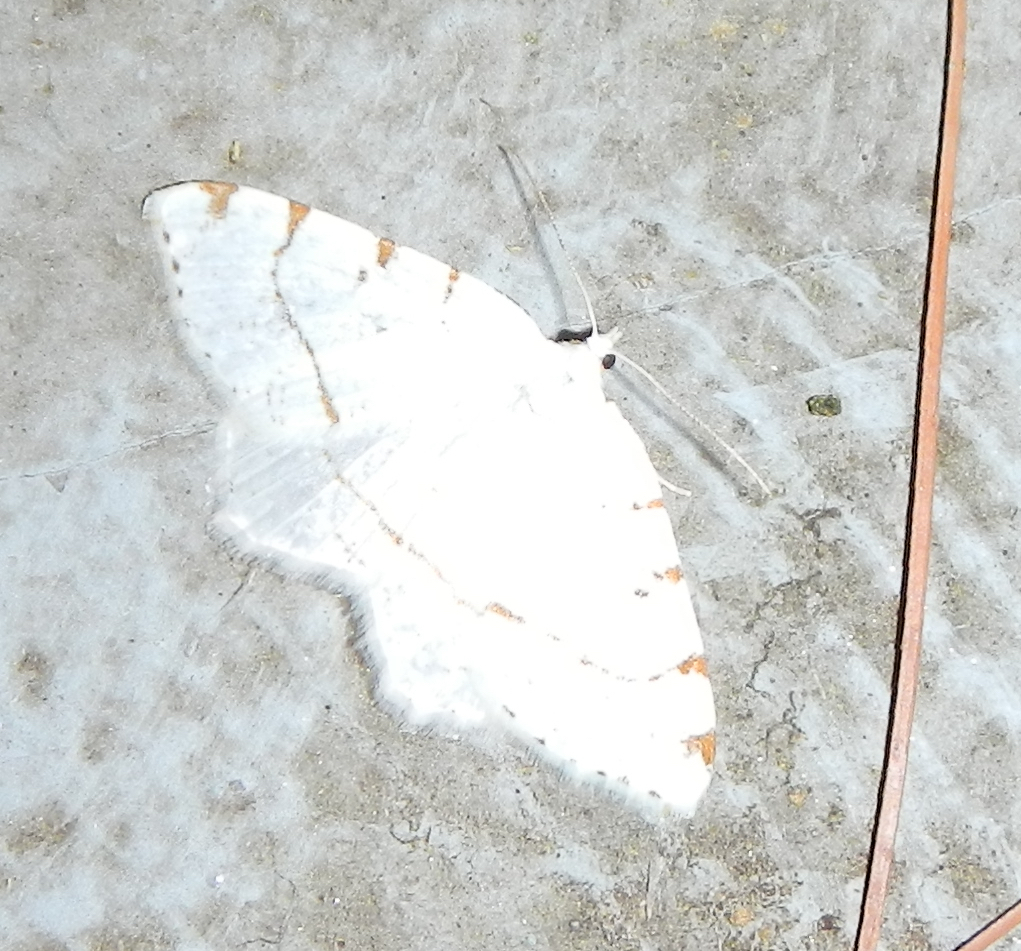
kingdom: Animalia
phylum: Arthropoda
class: Insecta
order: Lepidoptera
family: Geometridae
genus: Macaria
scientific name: Macaria pustularia
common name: Lesser maple spanworm moth
